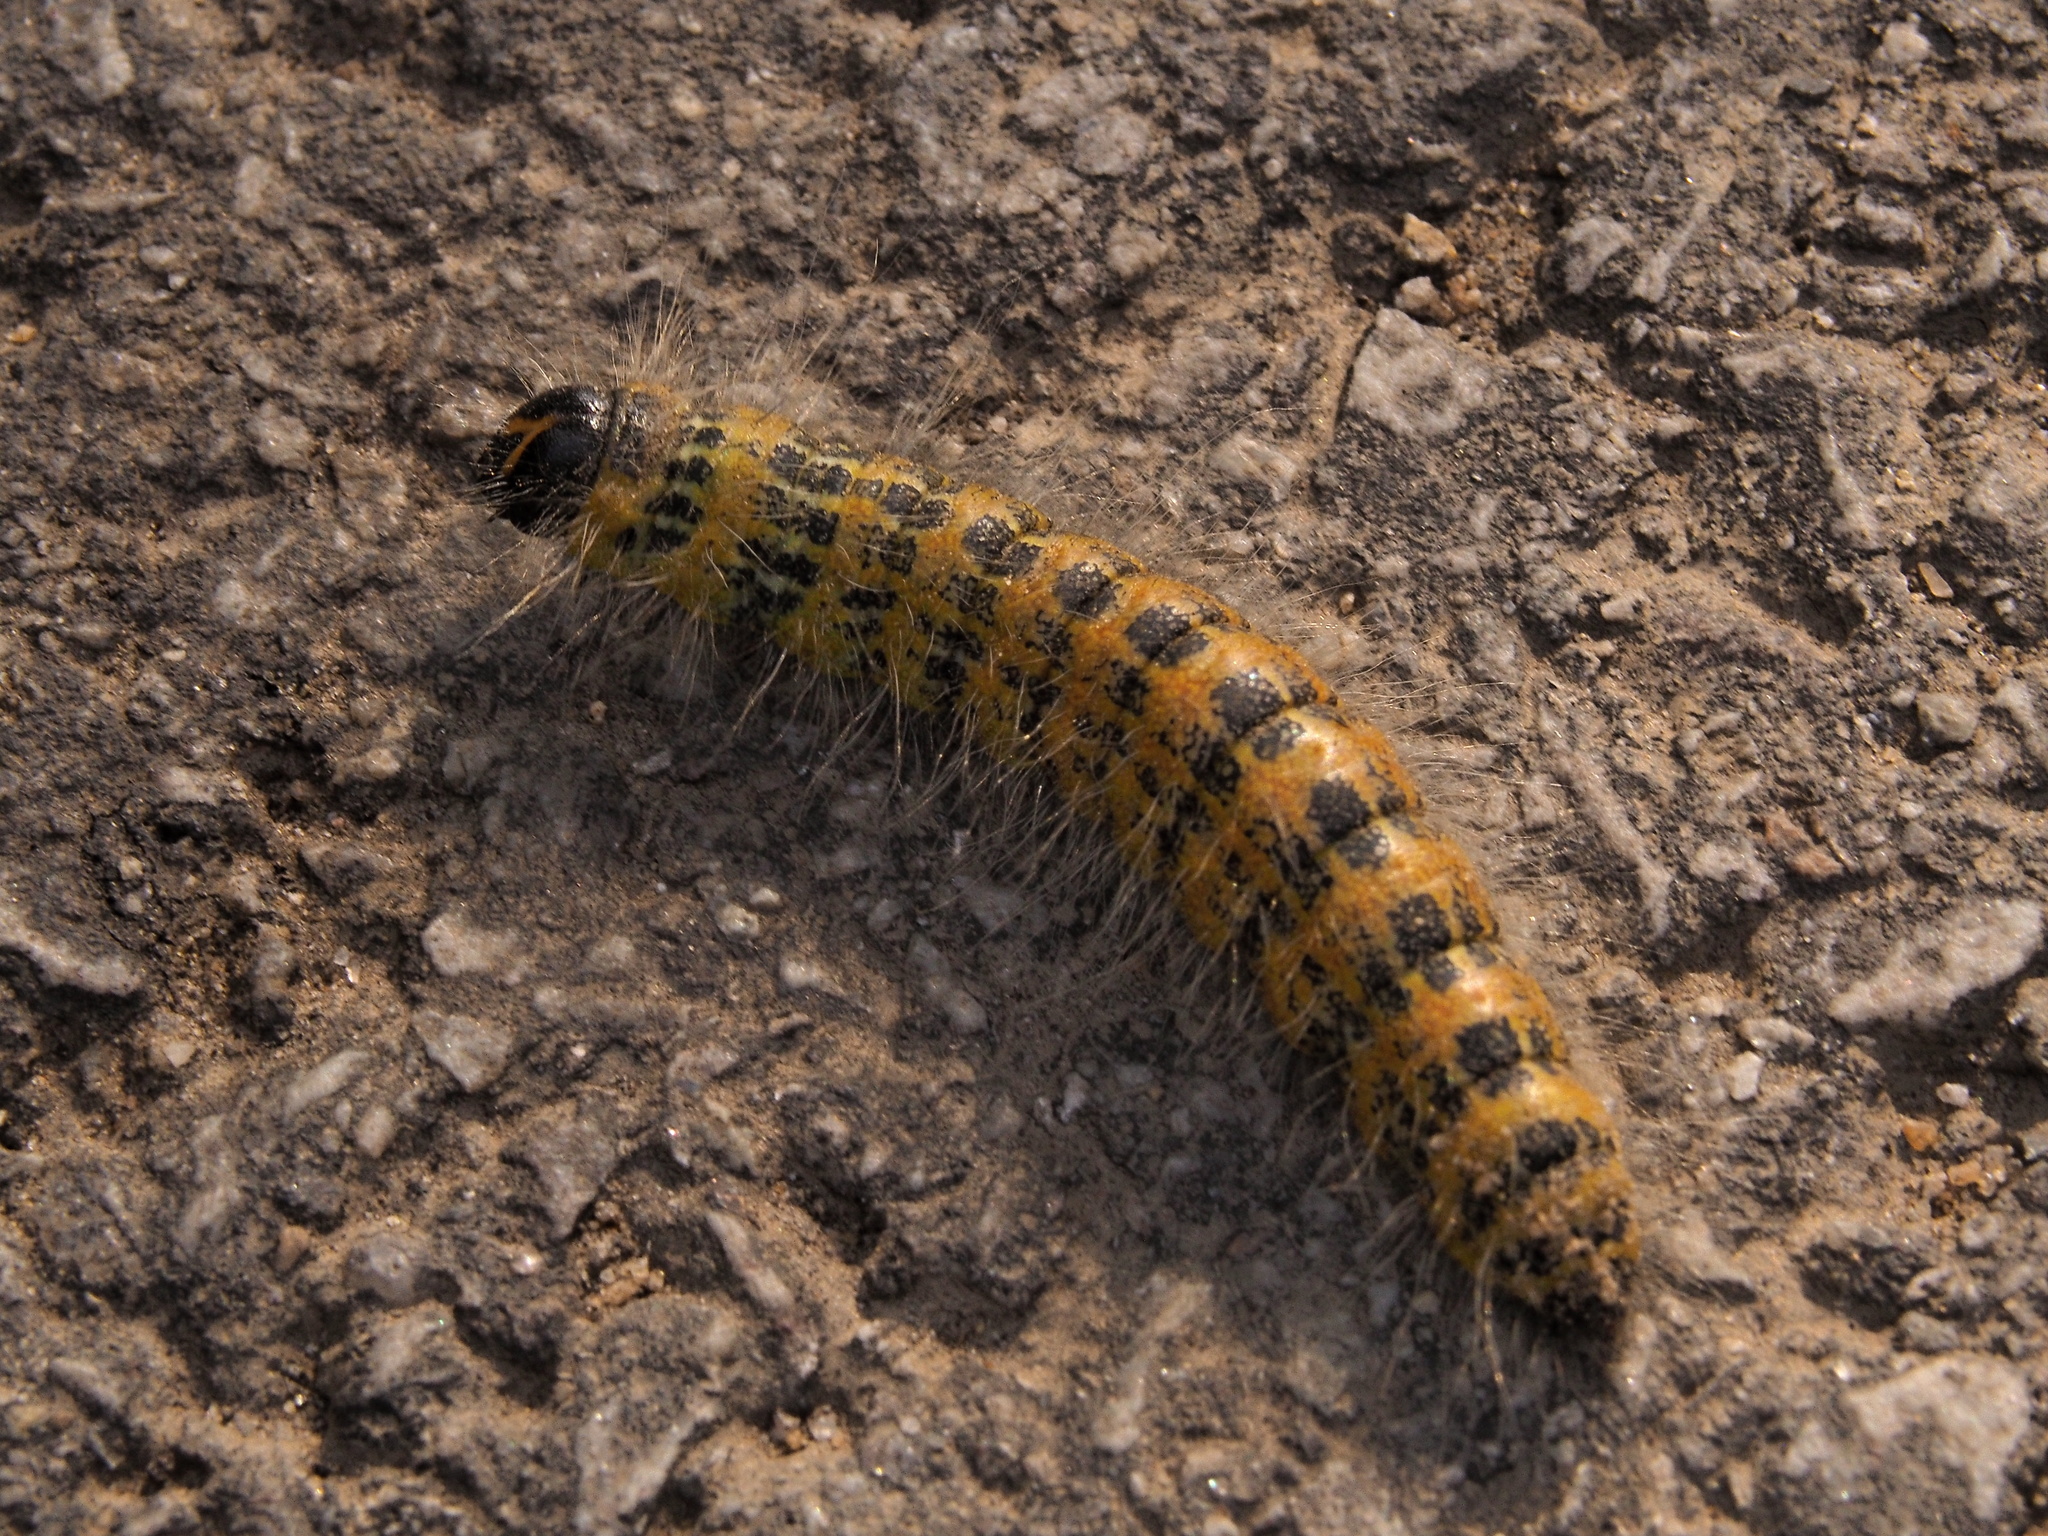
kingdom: Animalia
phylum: Arthropoda
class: Insecta
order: Lepidoptera
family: Notodontidae
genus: Phalera
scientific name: Phalera bucephala
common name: Buff-tip
